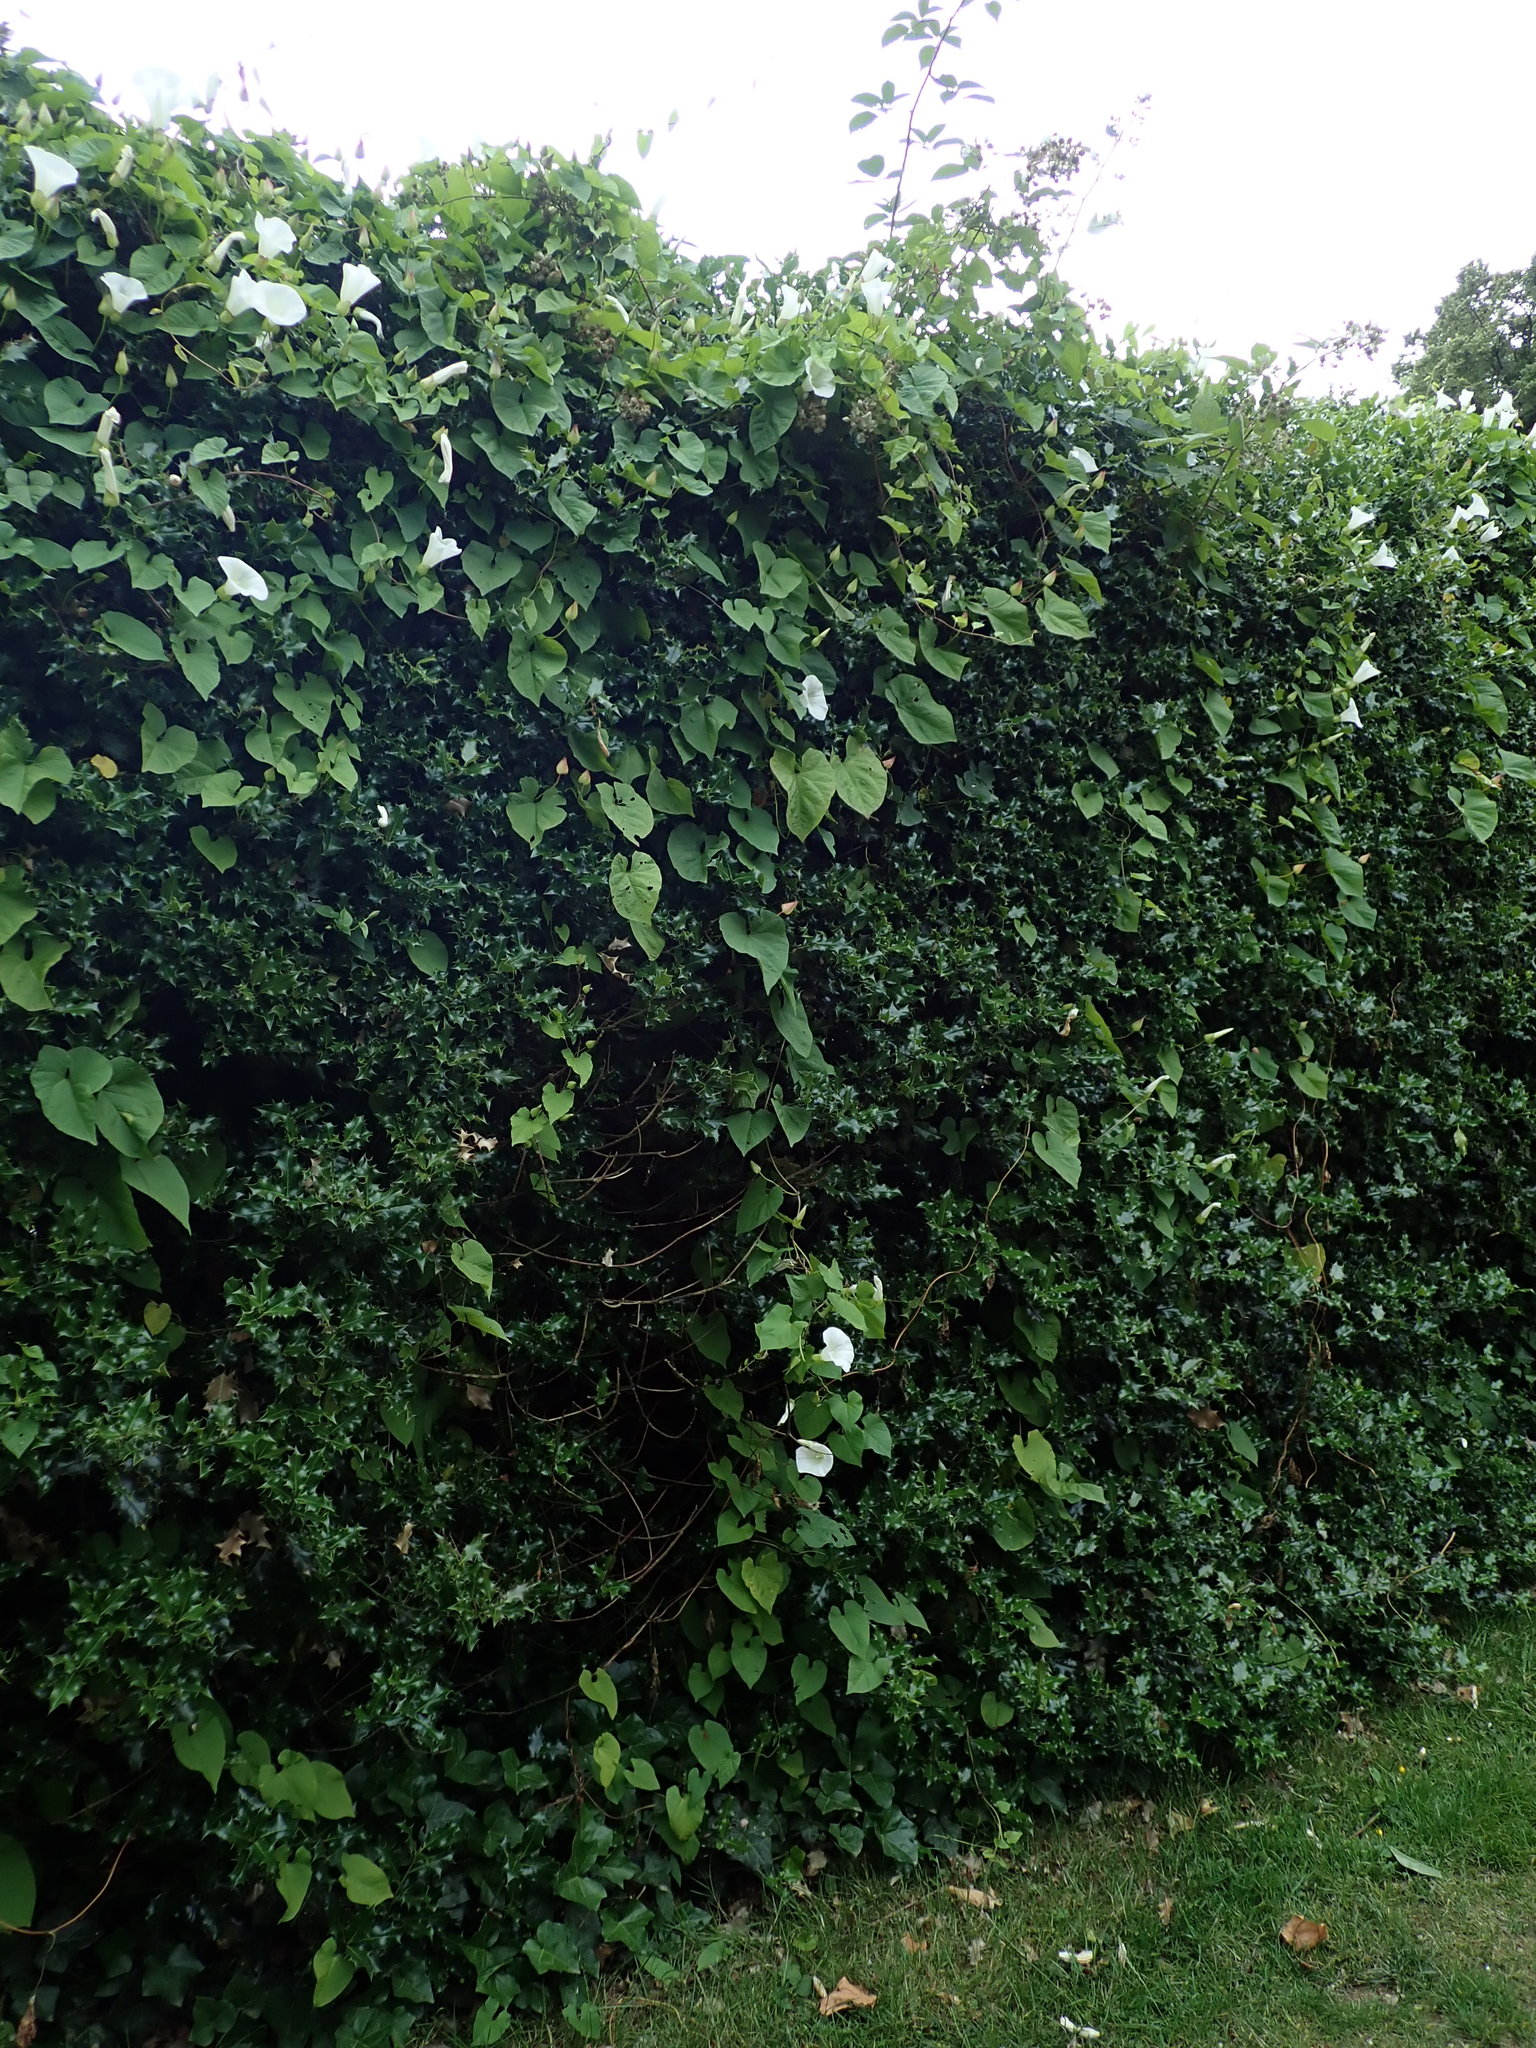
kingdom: Plantae
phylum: Tracheophyta
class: Magnoliopsida
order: Solanales
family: Convolvulaceae
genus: Calystegia
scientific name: Calystegia silvatica
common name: Large bindweed
